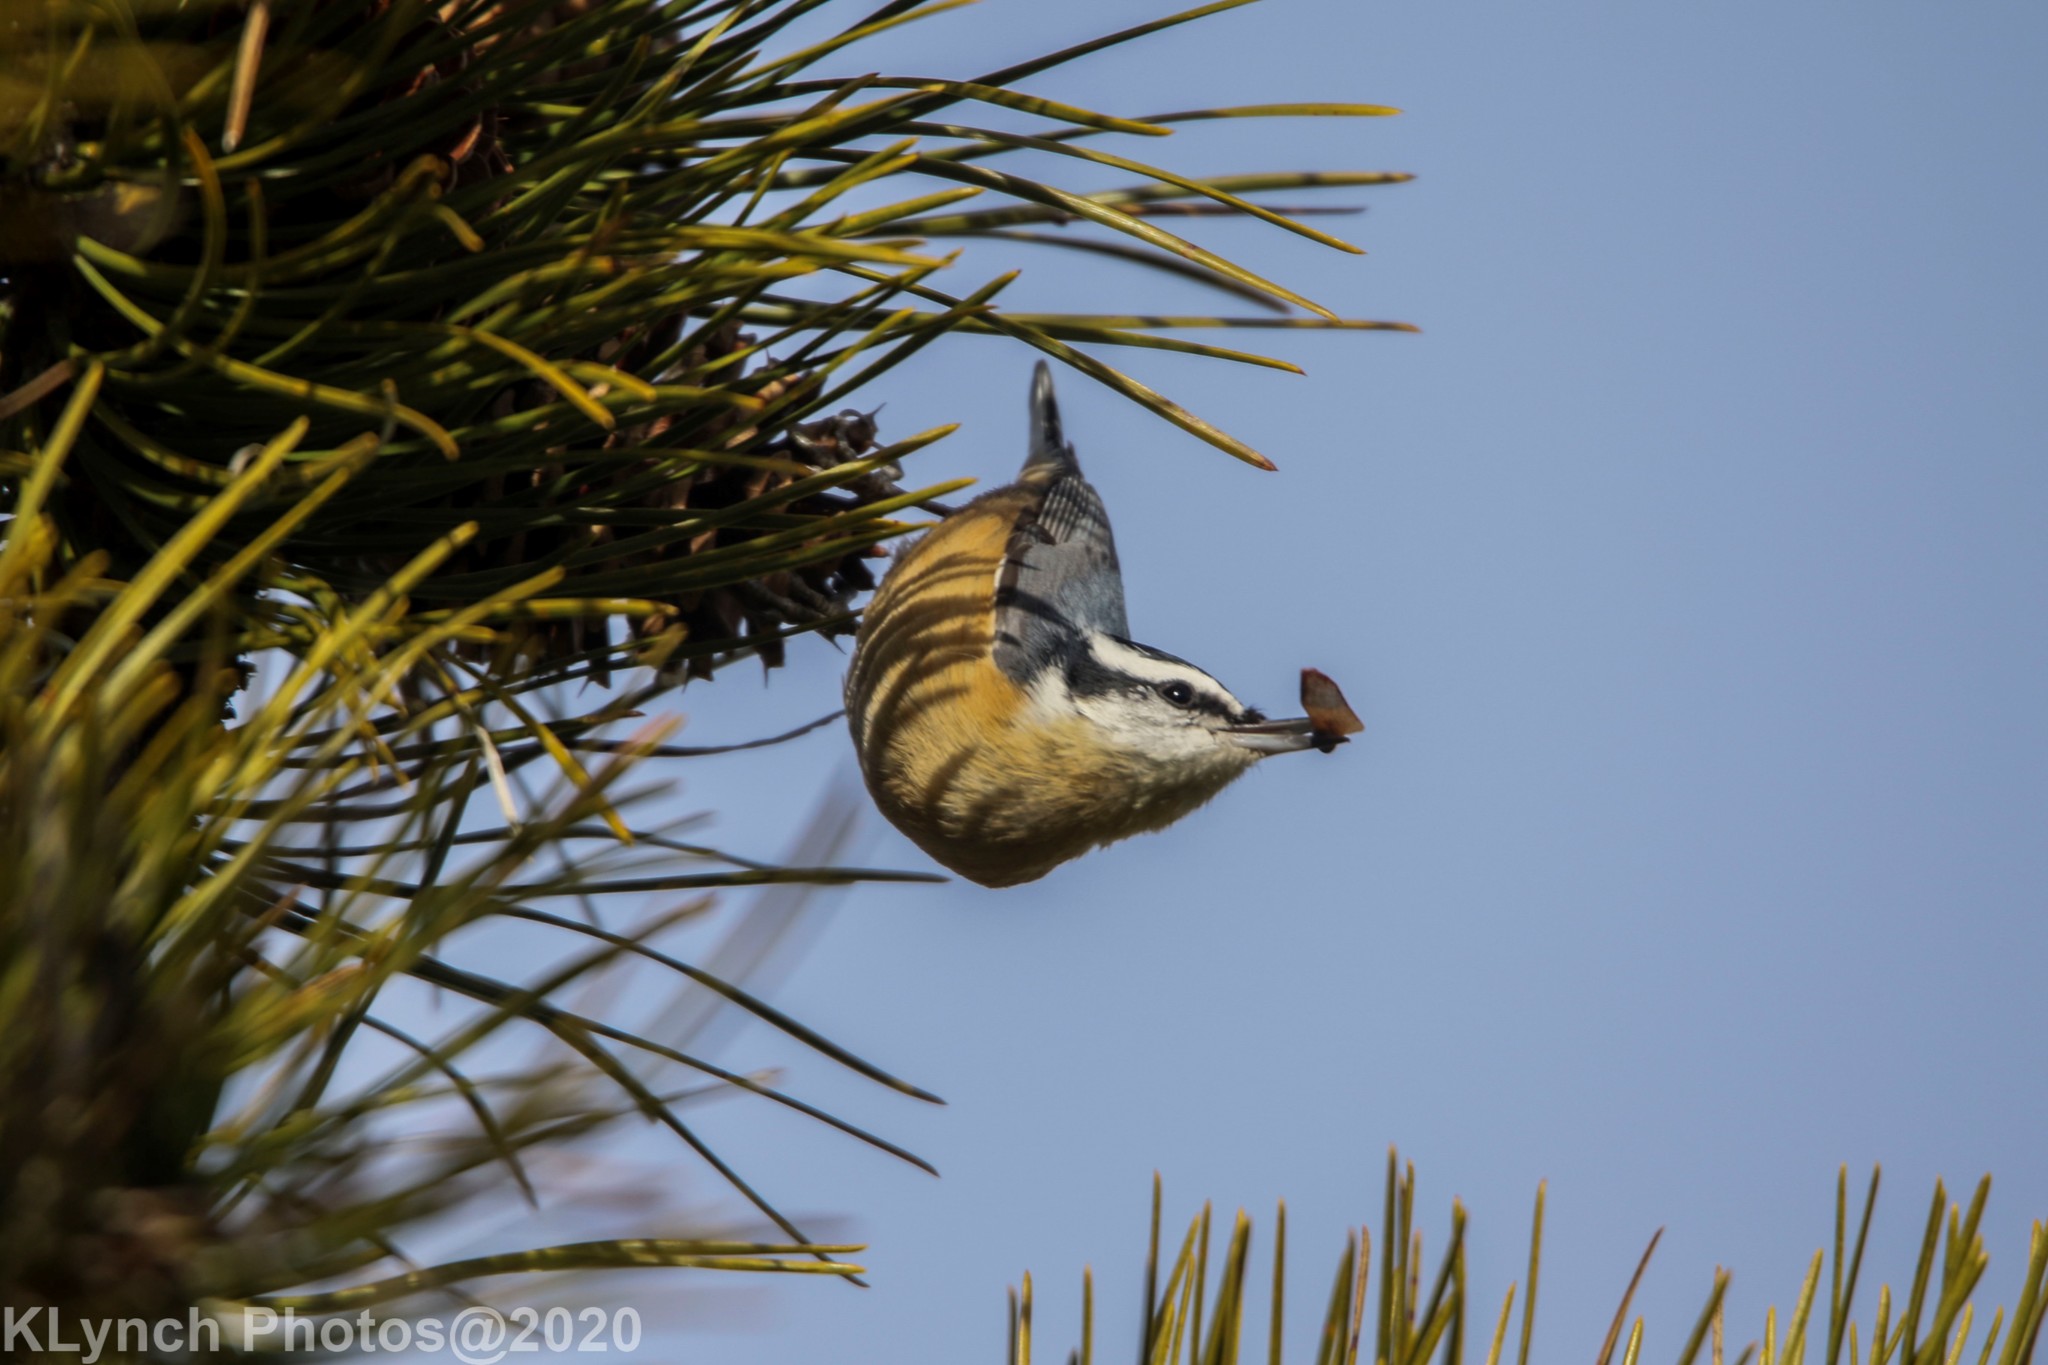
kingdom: Animalia
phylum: Chordata
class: Aves
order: Passeriformes
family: Sittidae
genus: Sitta
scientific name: Sitta canadensis
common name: Red-breasted nuthatch
